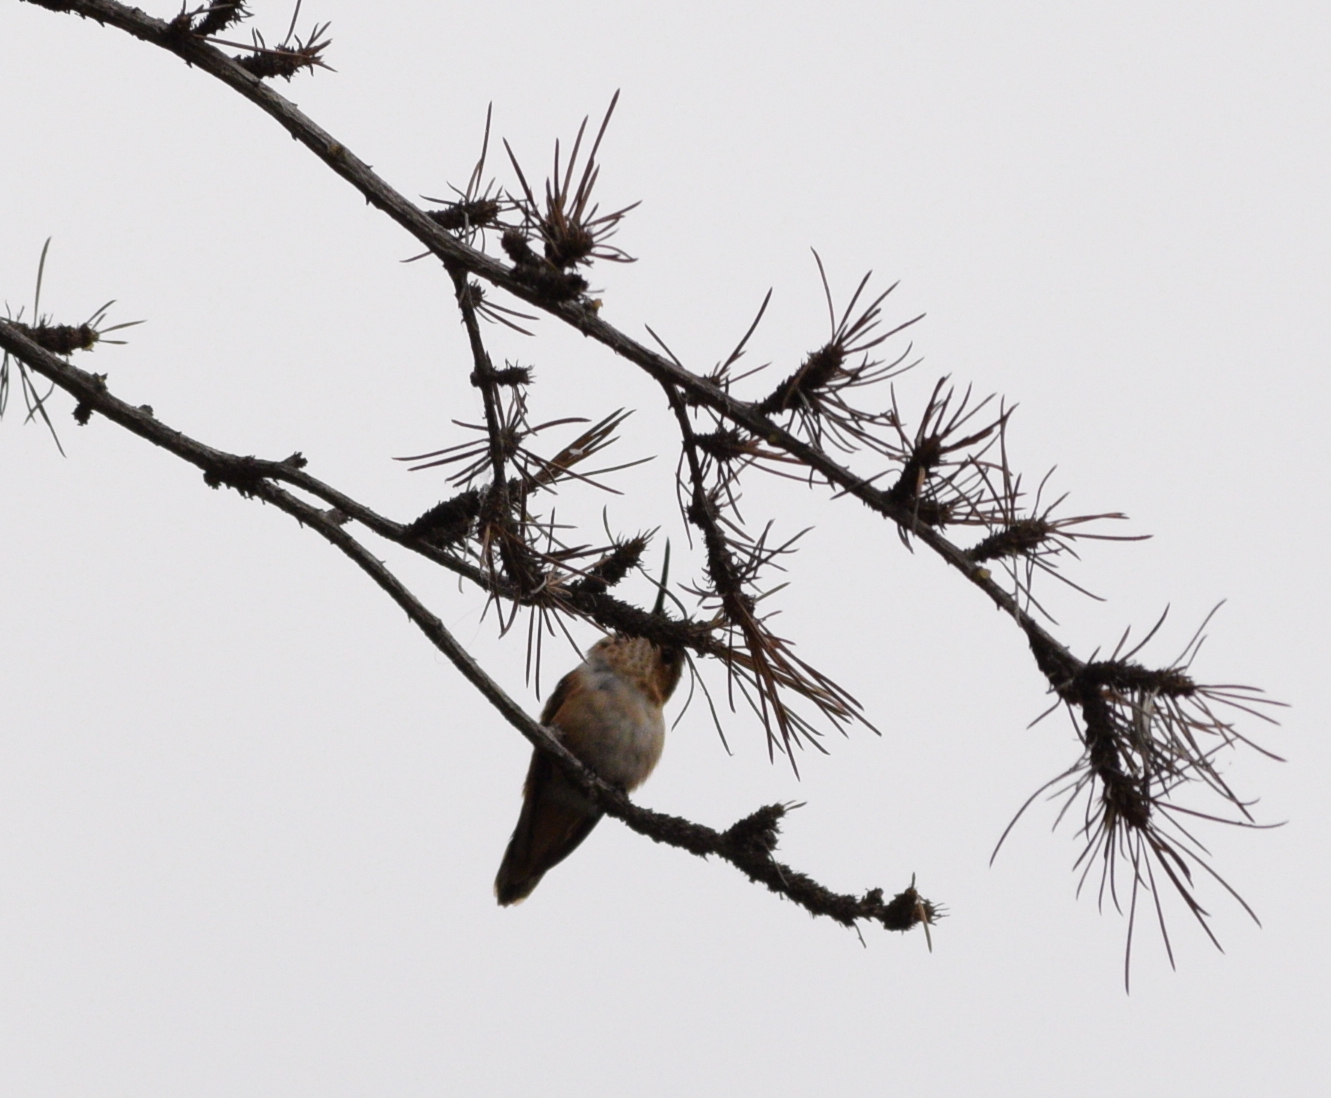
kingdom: Animalia
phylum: Chordata
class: Aves
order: Apodiformes
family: Trochilidae
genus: Selasphorus
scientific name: Selasphorus
